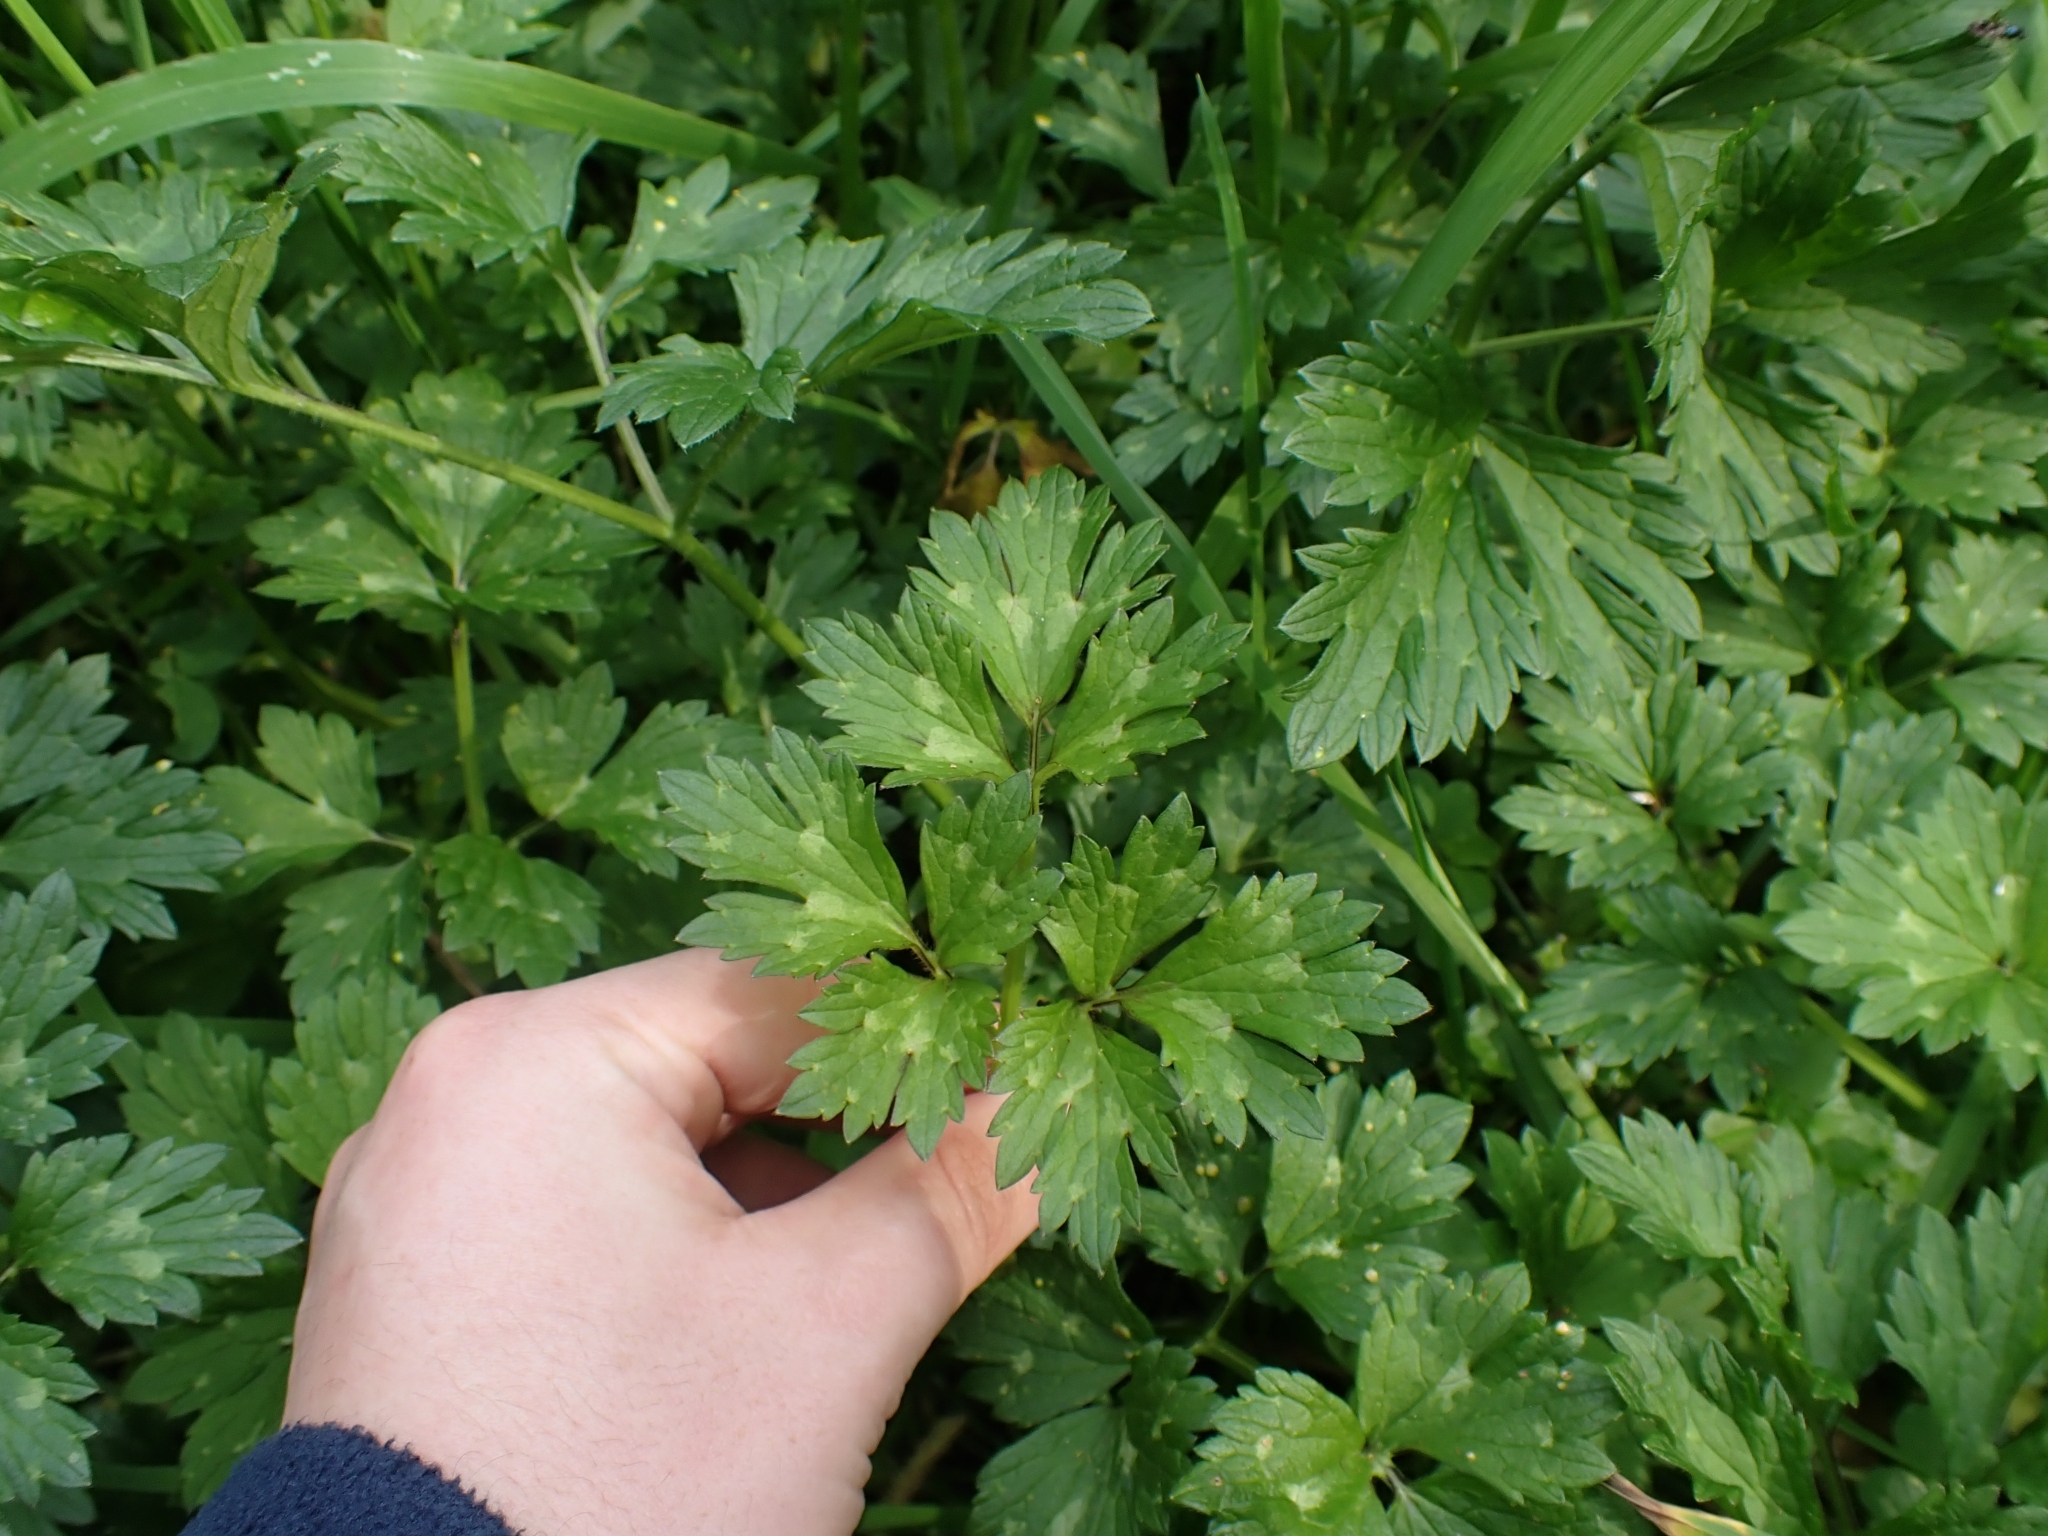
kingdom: Plantae
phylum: Tracheophyta
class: Magnoliopsida
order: Ranunculales
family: Ranunculaceae
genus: Ranunculus
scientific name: Ranunculus repens
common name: Creeping buttercup
